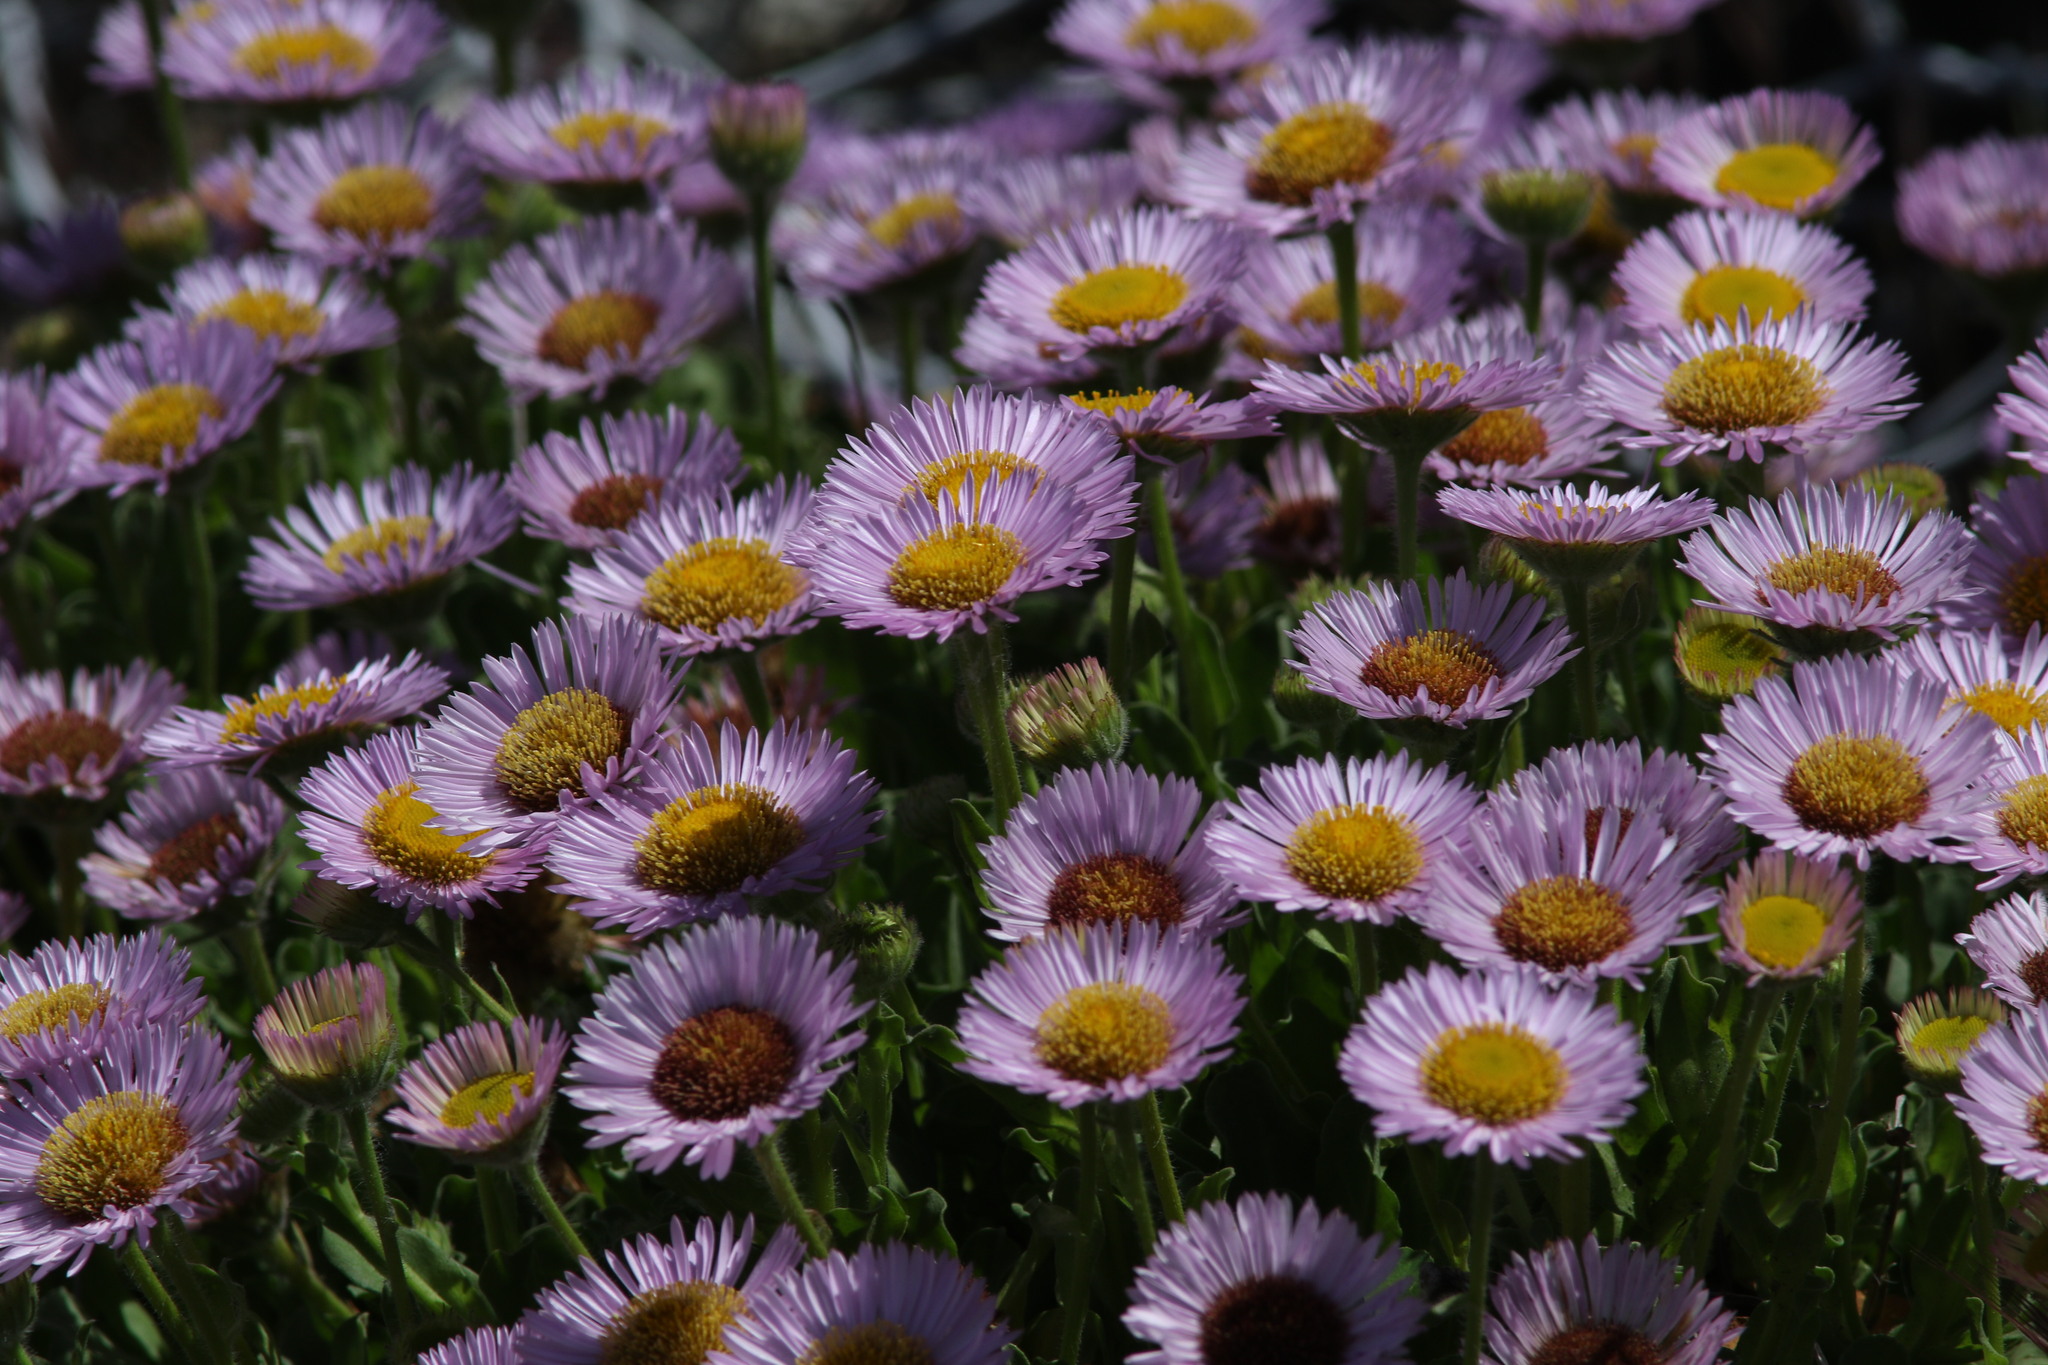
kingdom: Plantae
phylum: Tracheophyta
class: Magnoliopsida
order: Asterales
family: Asteraceae
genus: Erigeron
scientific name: Erigeron glaucus
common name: Seaside daisy
